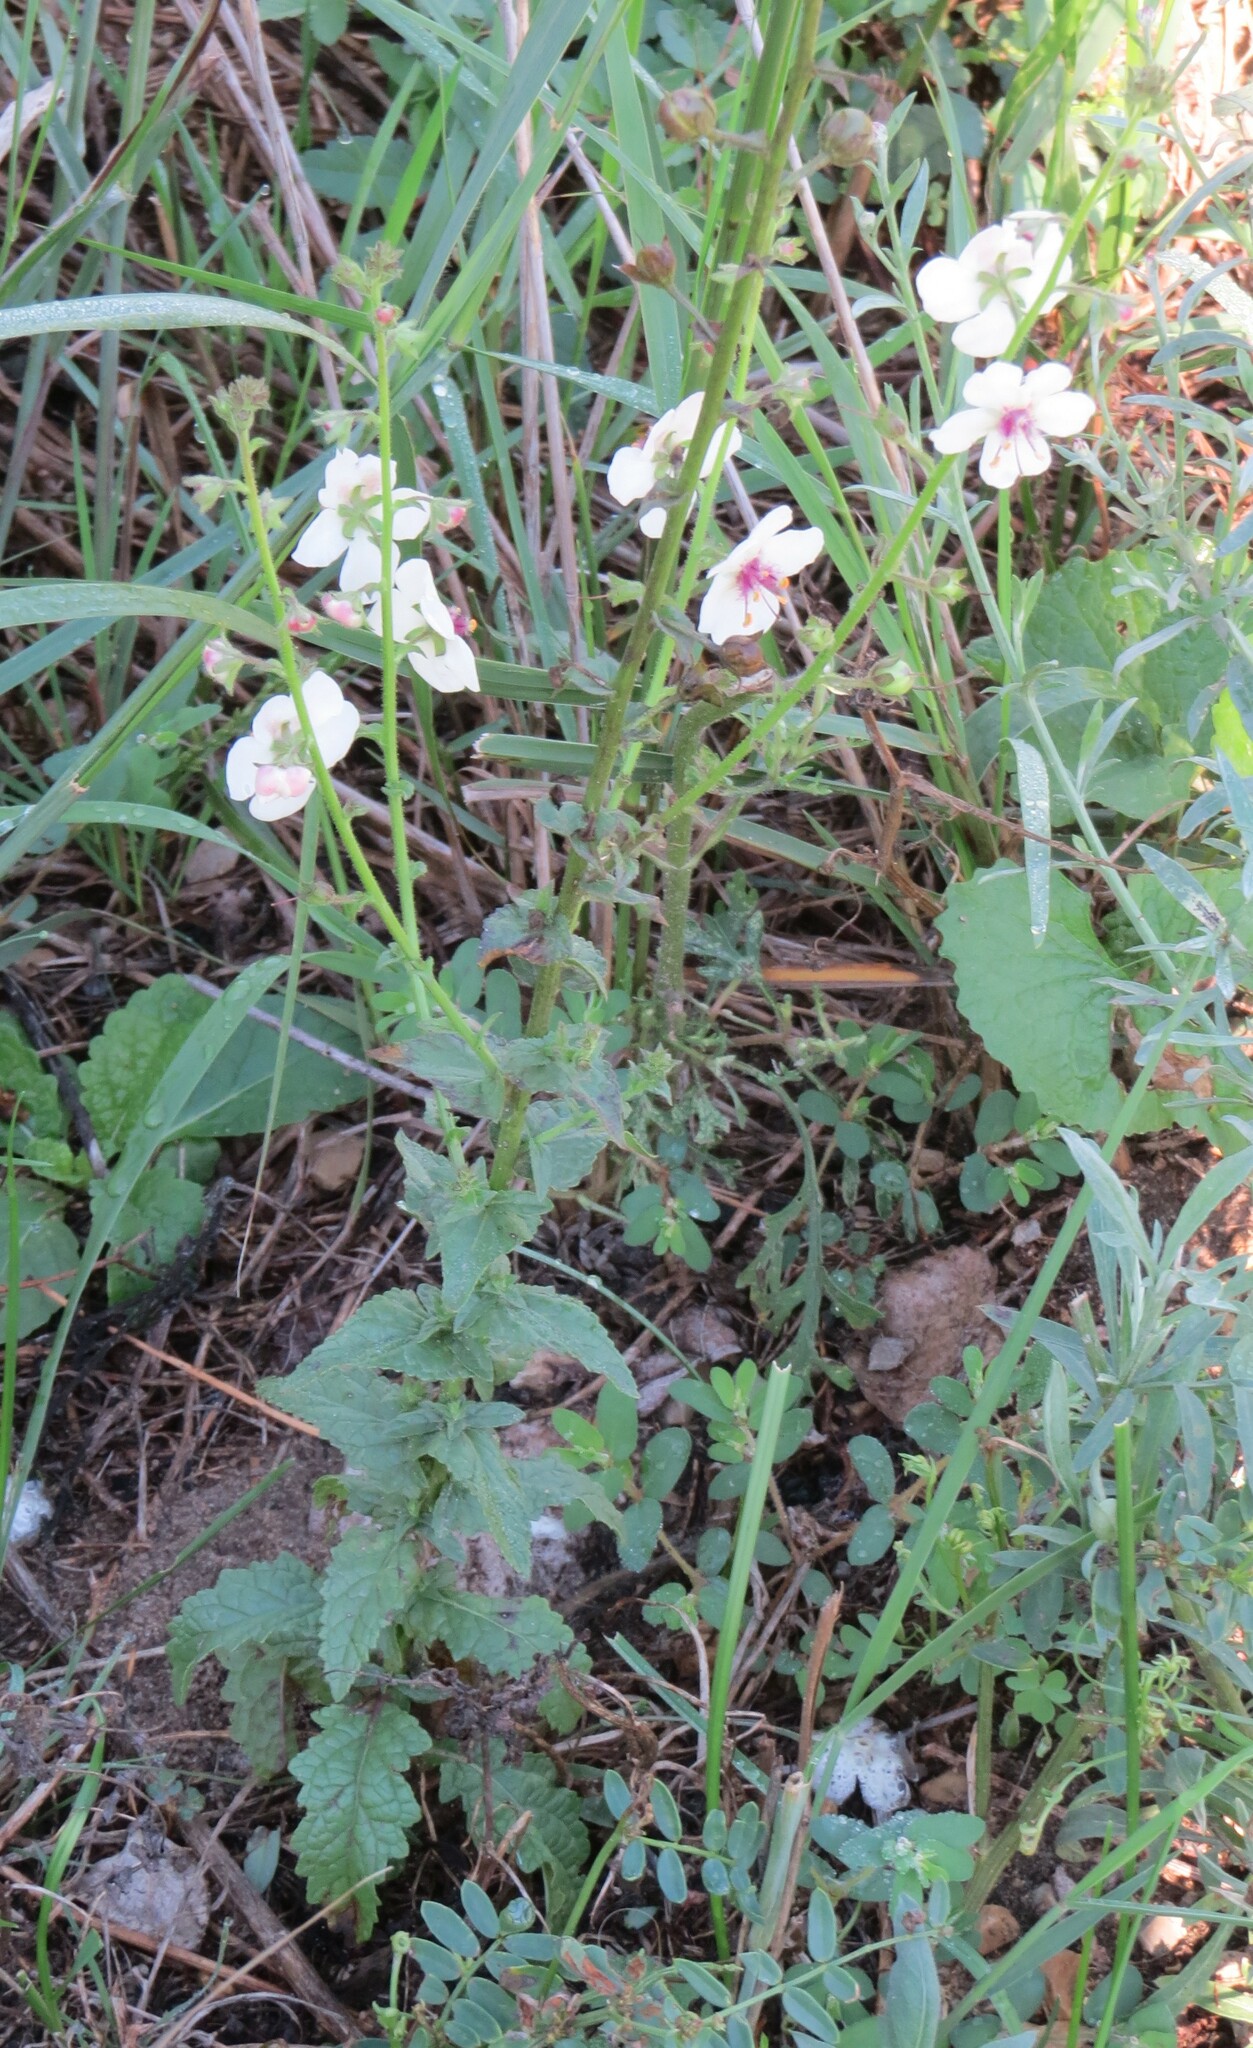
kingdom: Plantae
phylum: Tracheophyta
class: Magnoliopsida
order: Lamiales
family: Scrophulariaceae
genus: Verbascum
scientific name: Verbascum blattaria
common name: Moth mullein
